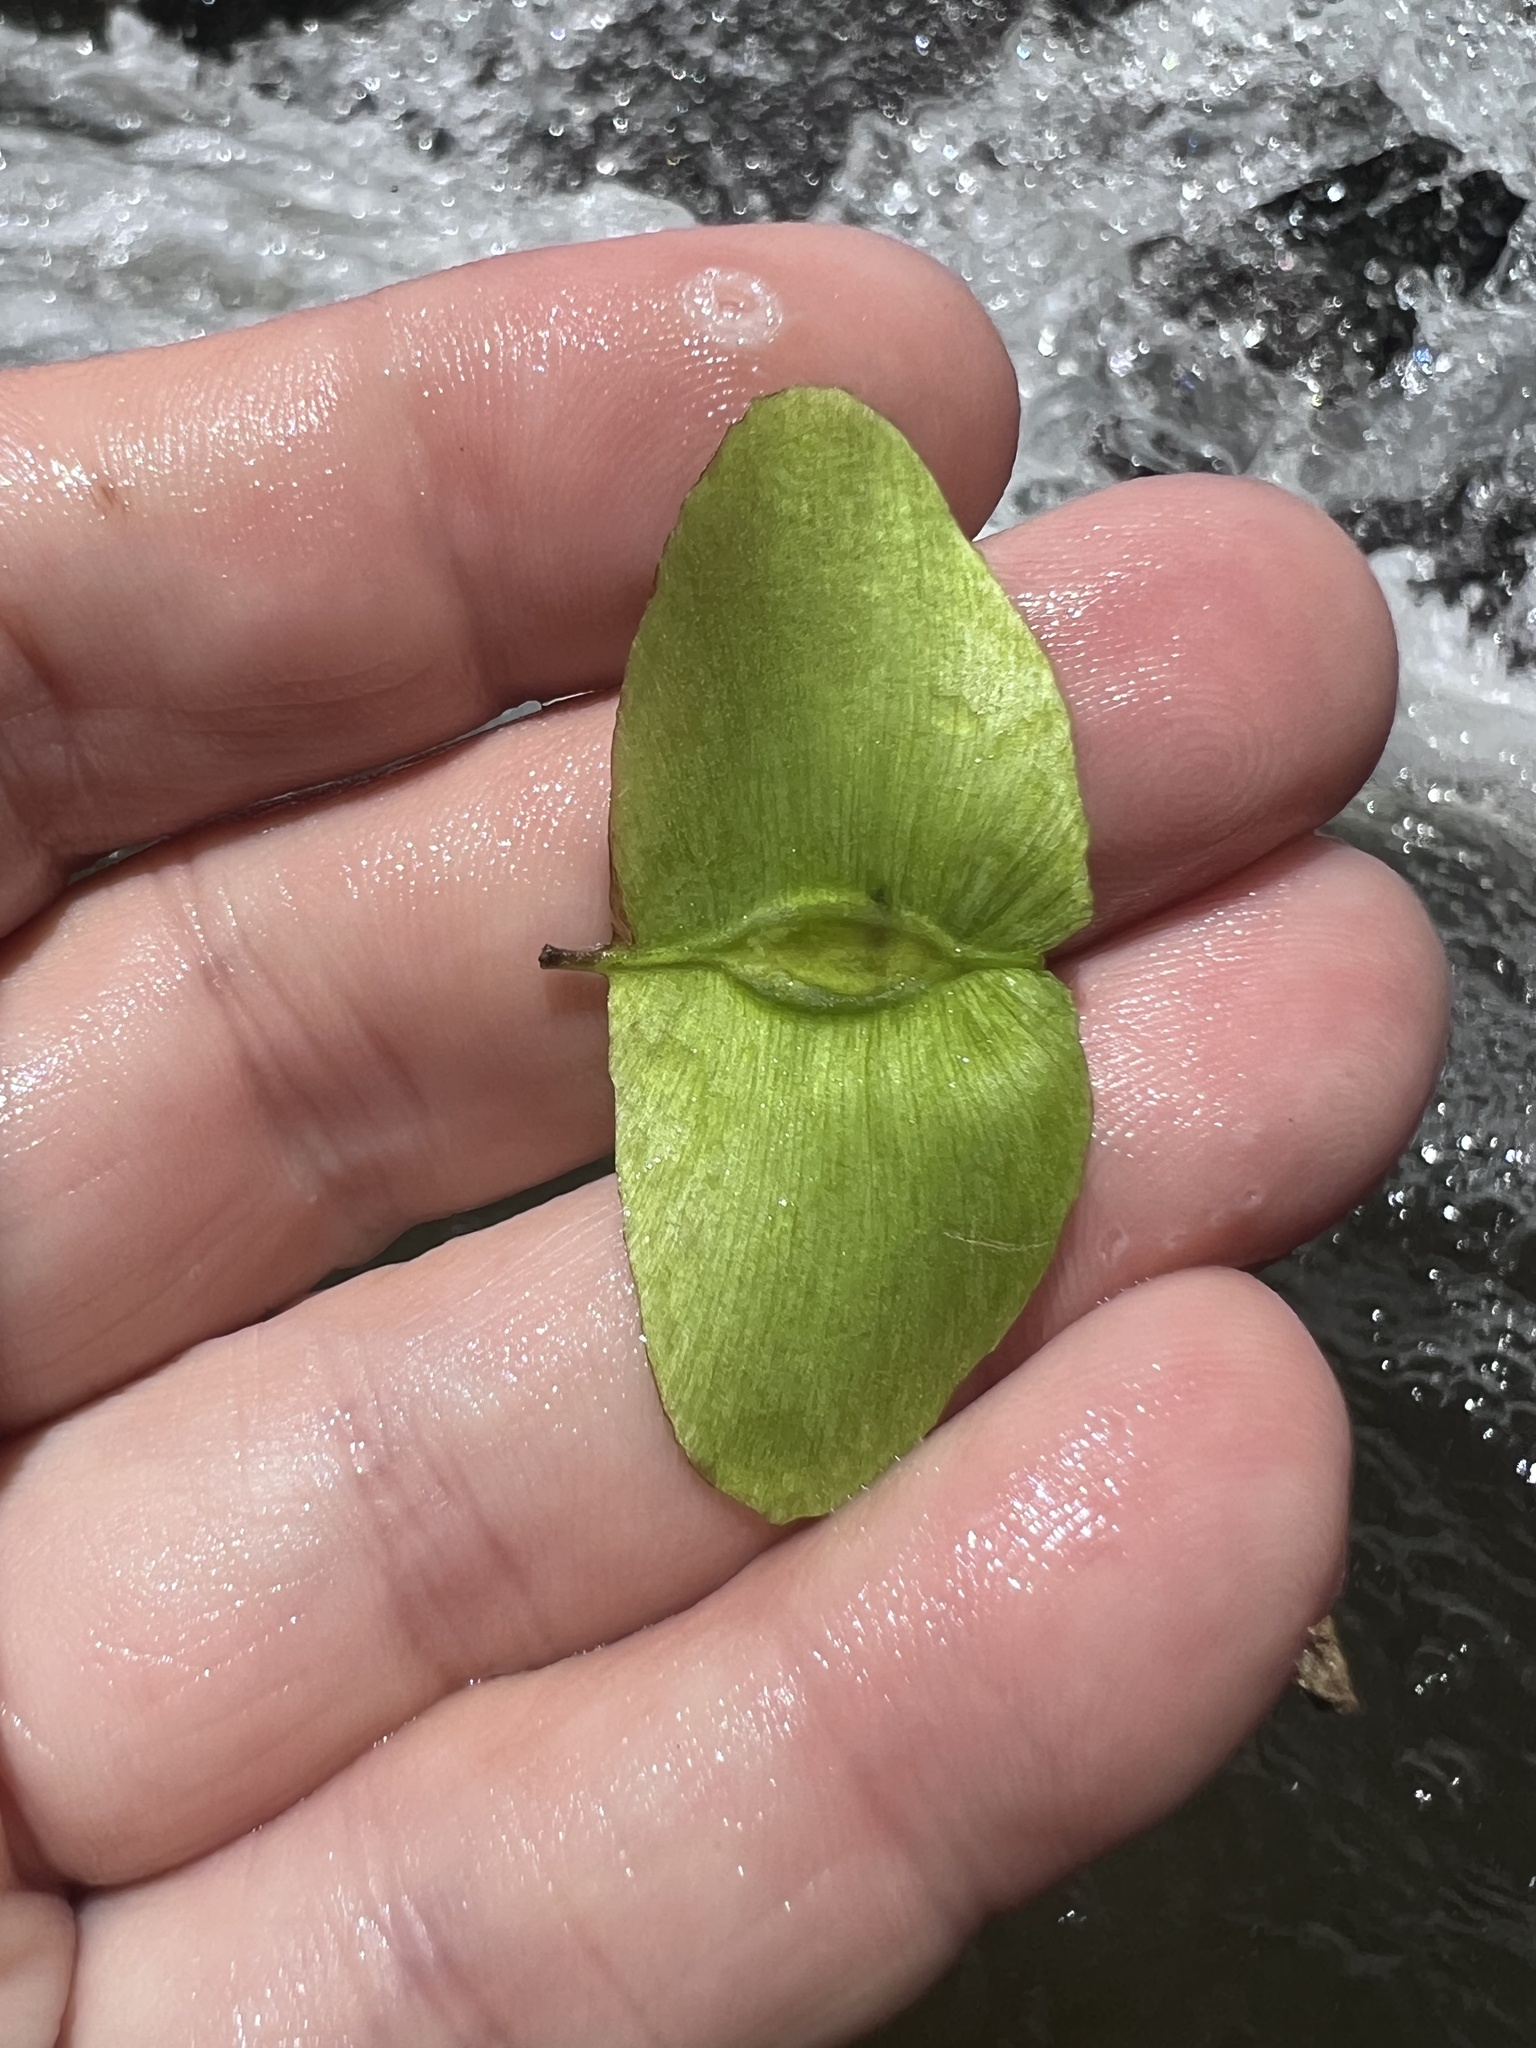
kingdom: Plantae
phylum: Tracheophyta
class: Liliopsida
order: Commelinales
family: Pontederiaceae
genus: Heteranthera
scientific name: Heteranthera reniformis
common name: Kidneyleaf mudplantain
